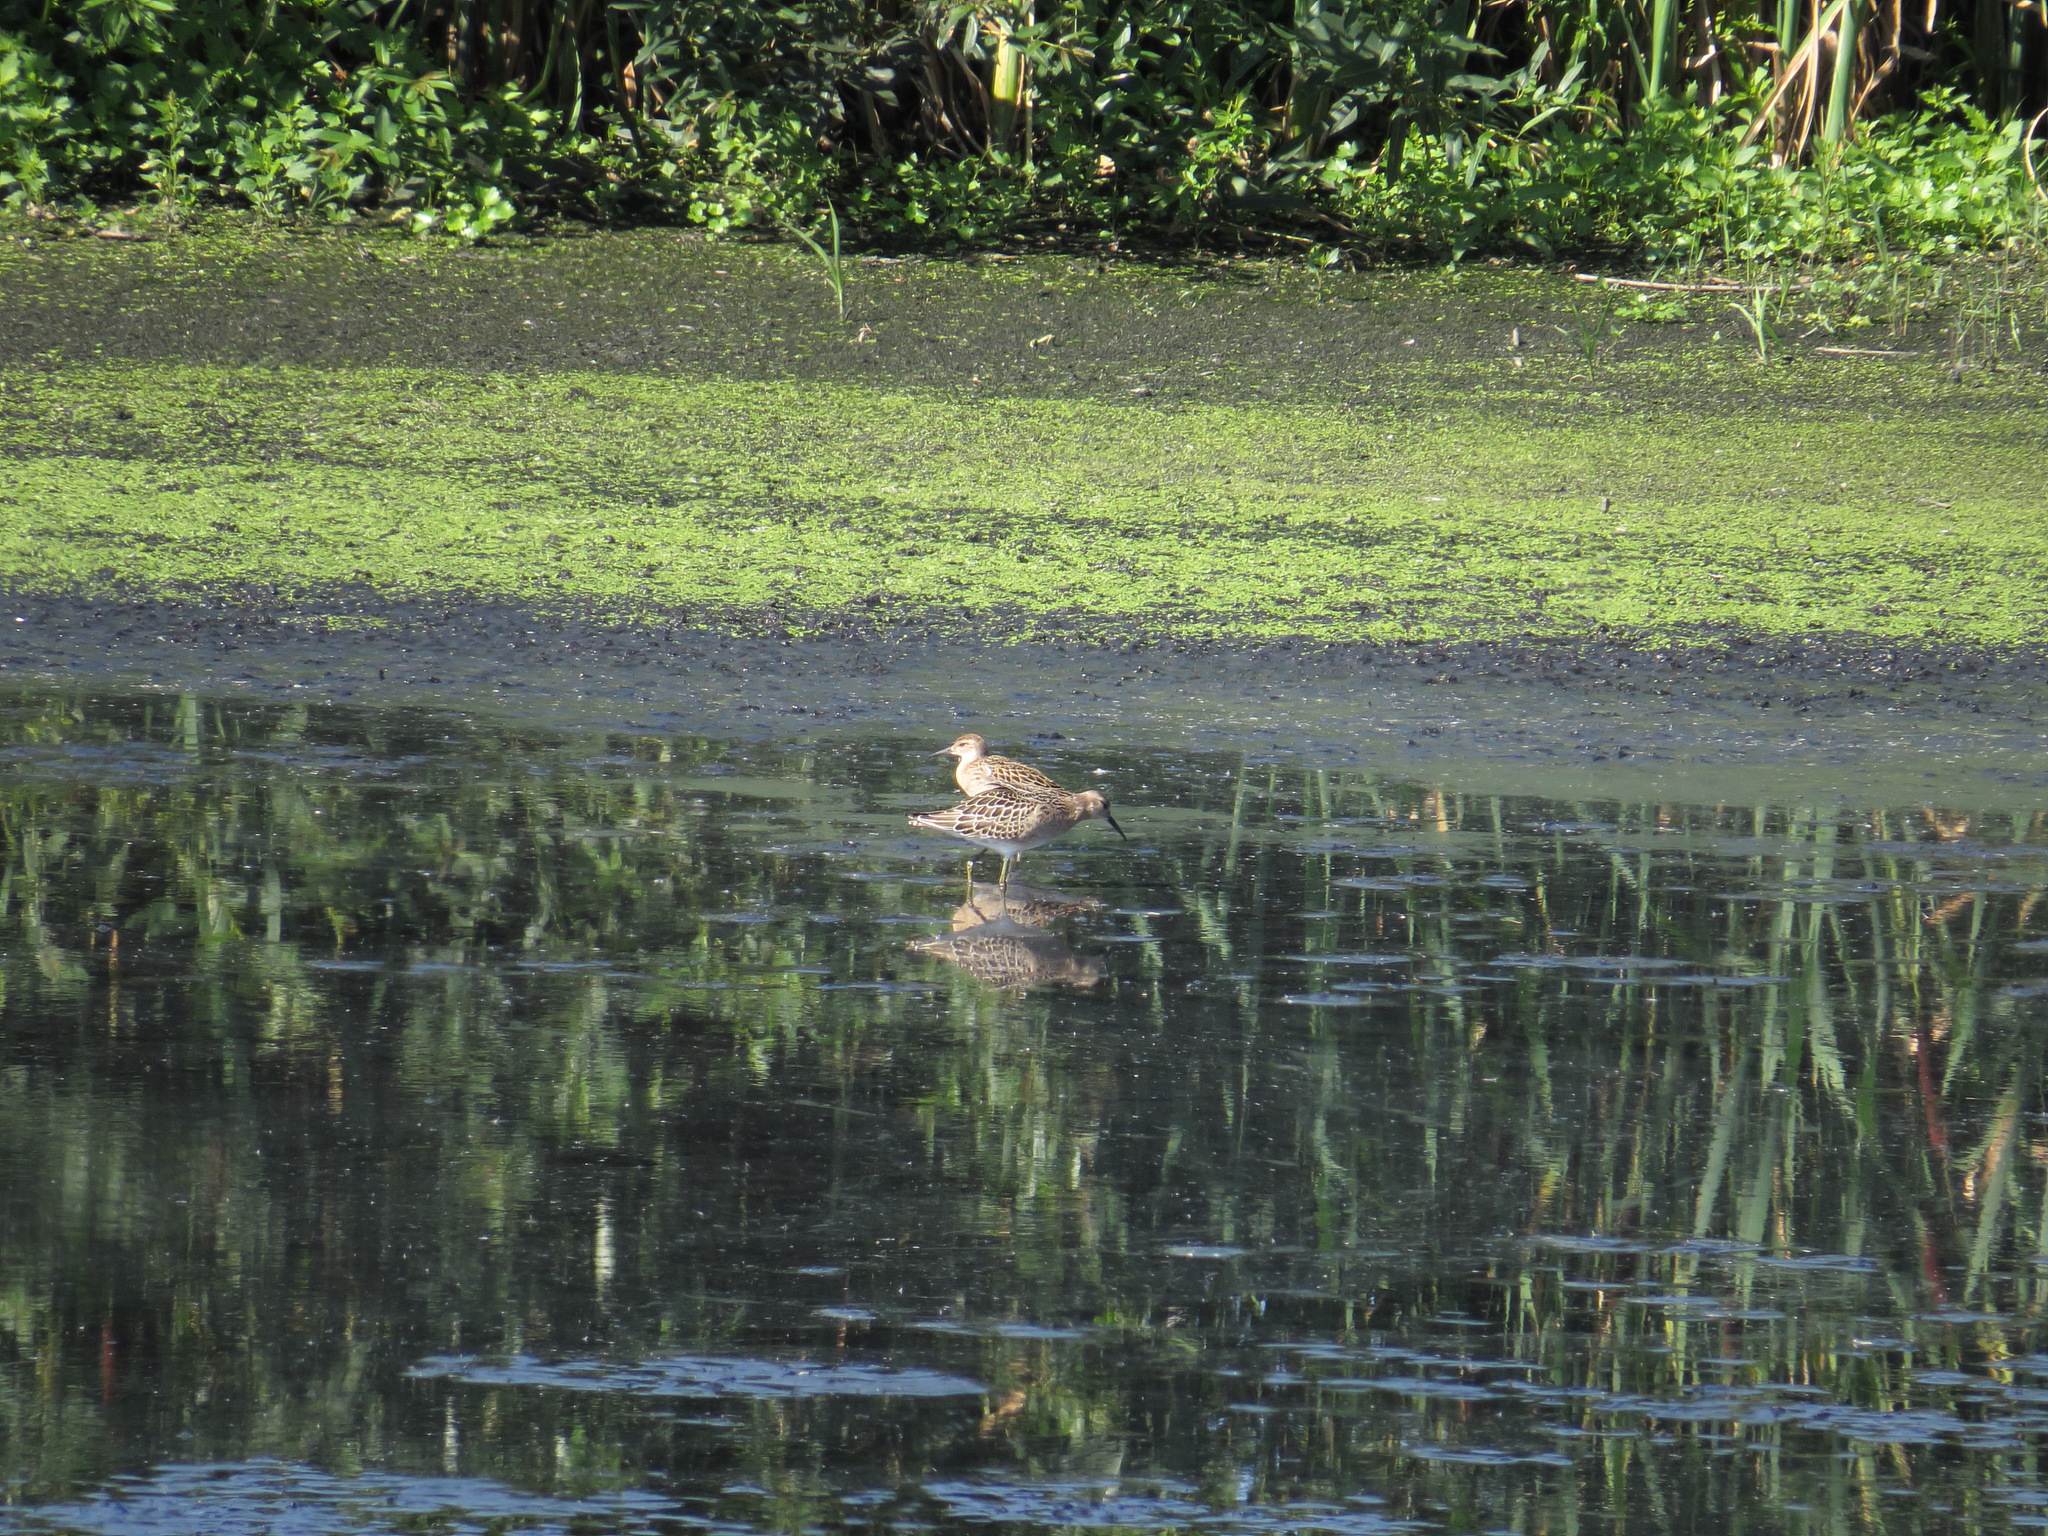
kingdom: Animalia
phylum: Chordata
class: Aves
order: Charadriiformes
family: Scolopacidae
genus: Calidris
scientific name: Calidris pugnax
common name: Ruff
